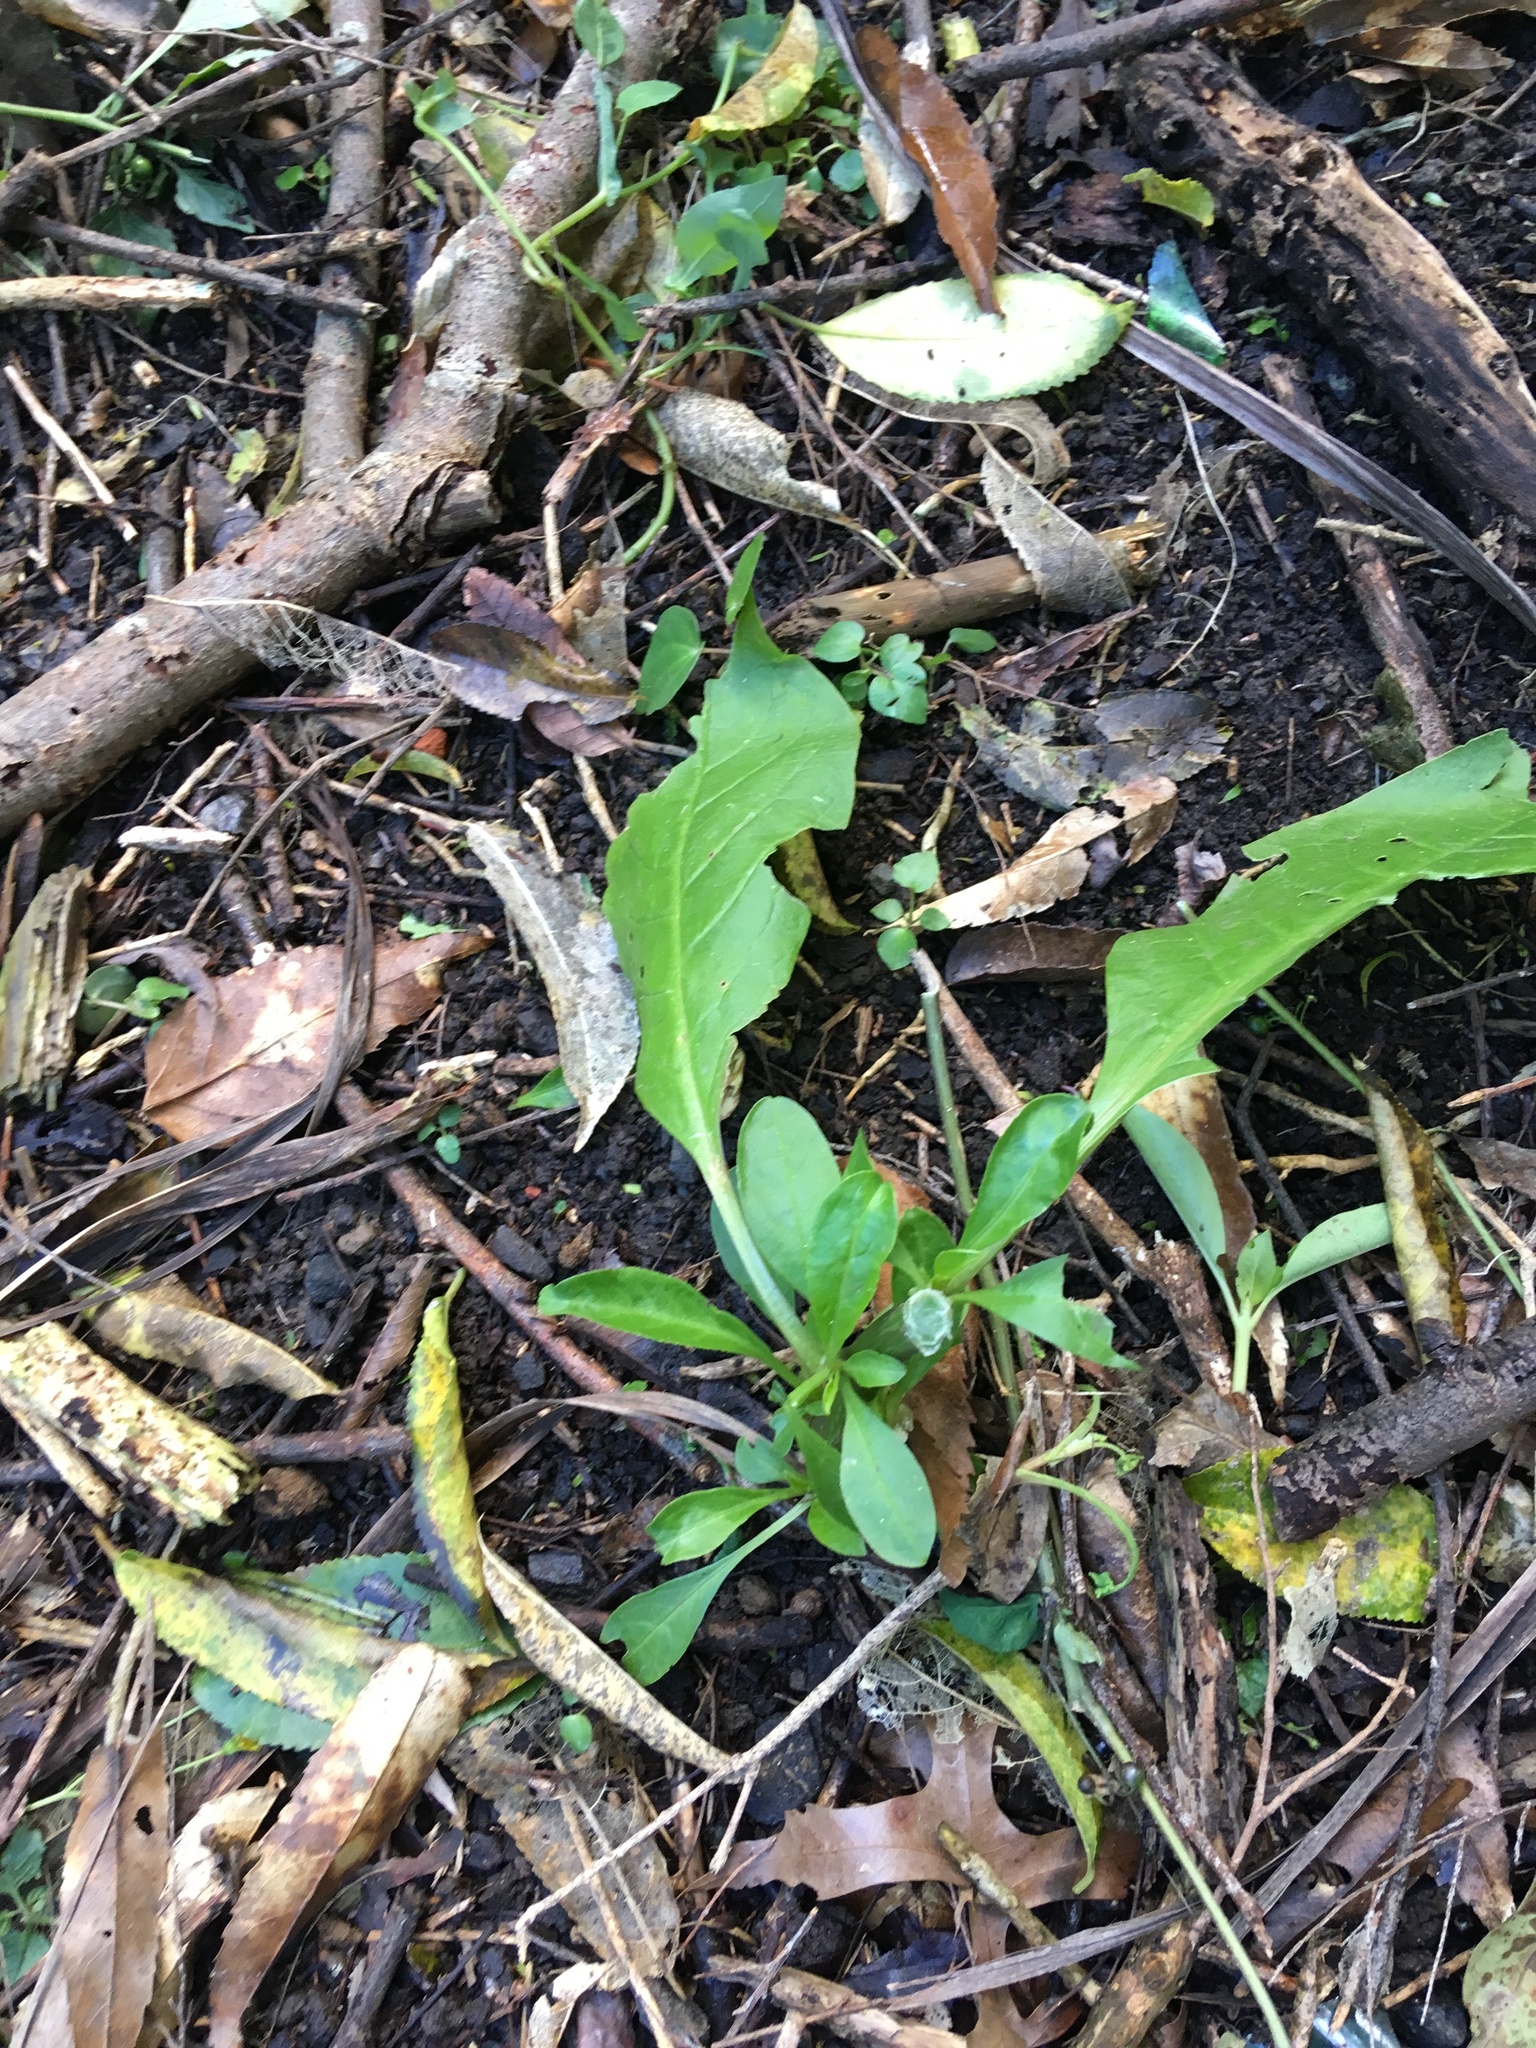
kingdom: Plantae
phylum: Tracheophyta
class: Magnoliopsida
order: Caryophyllales
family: Phytolaccaceae
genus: Phytolacca
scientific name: Phytolacca icosandra
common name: Button pokeweed
